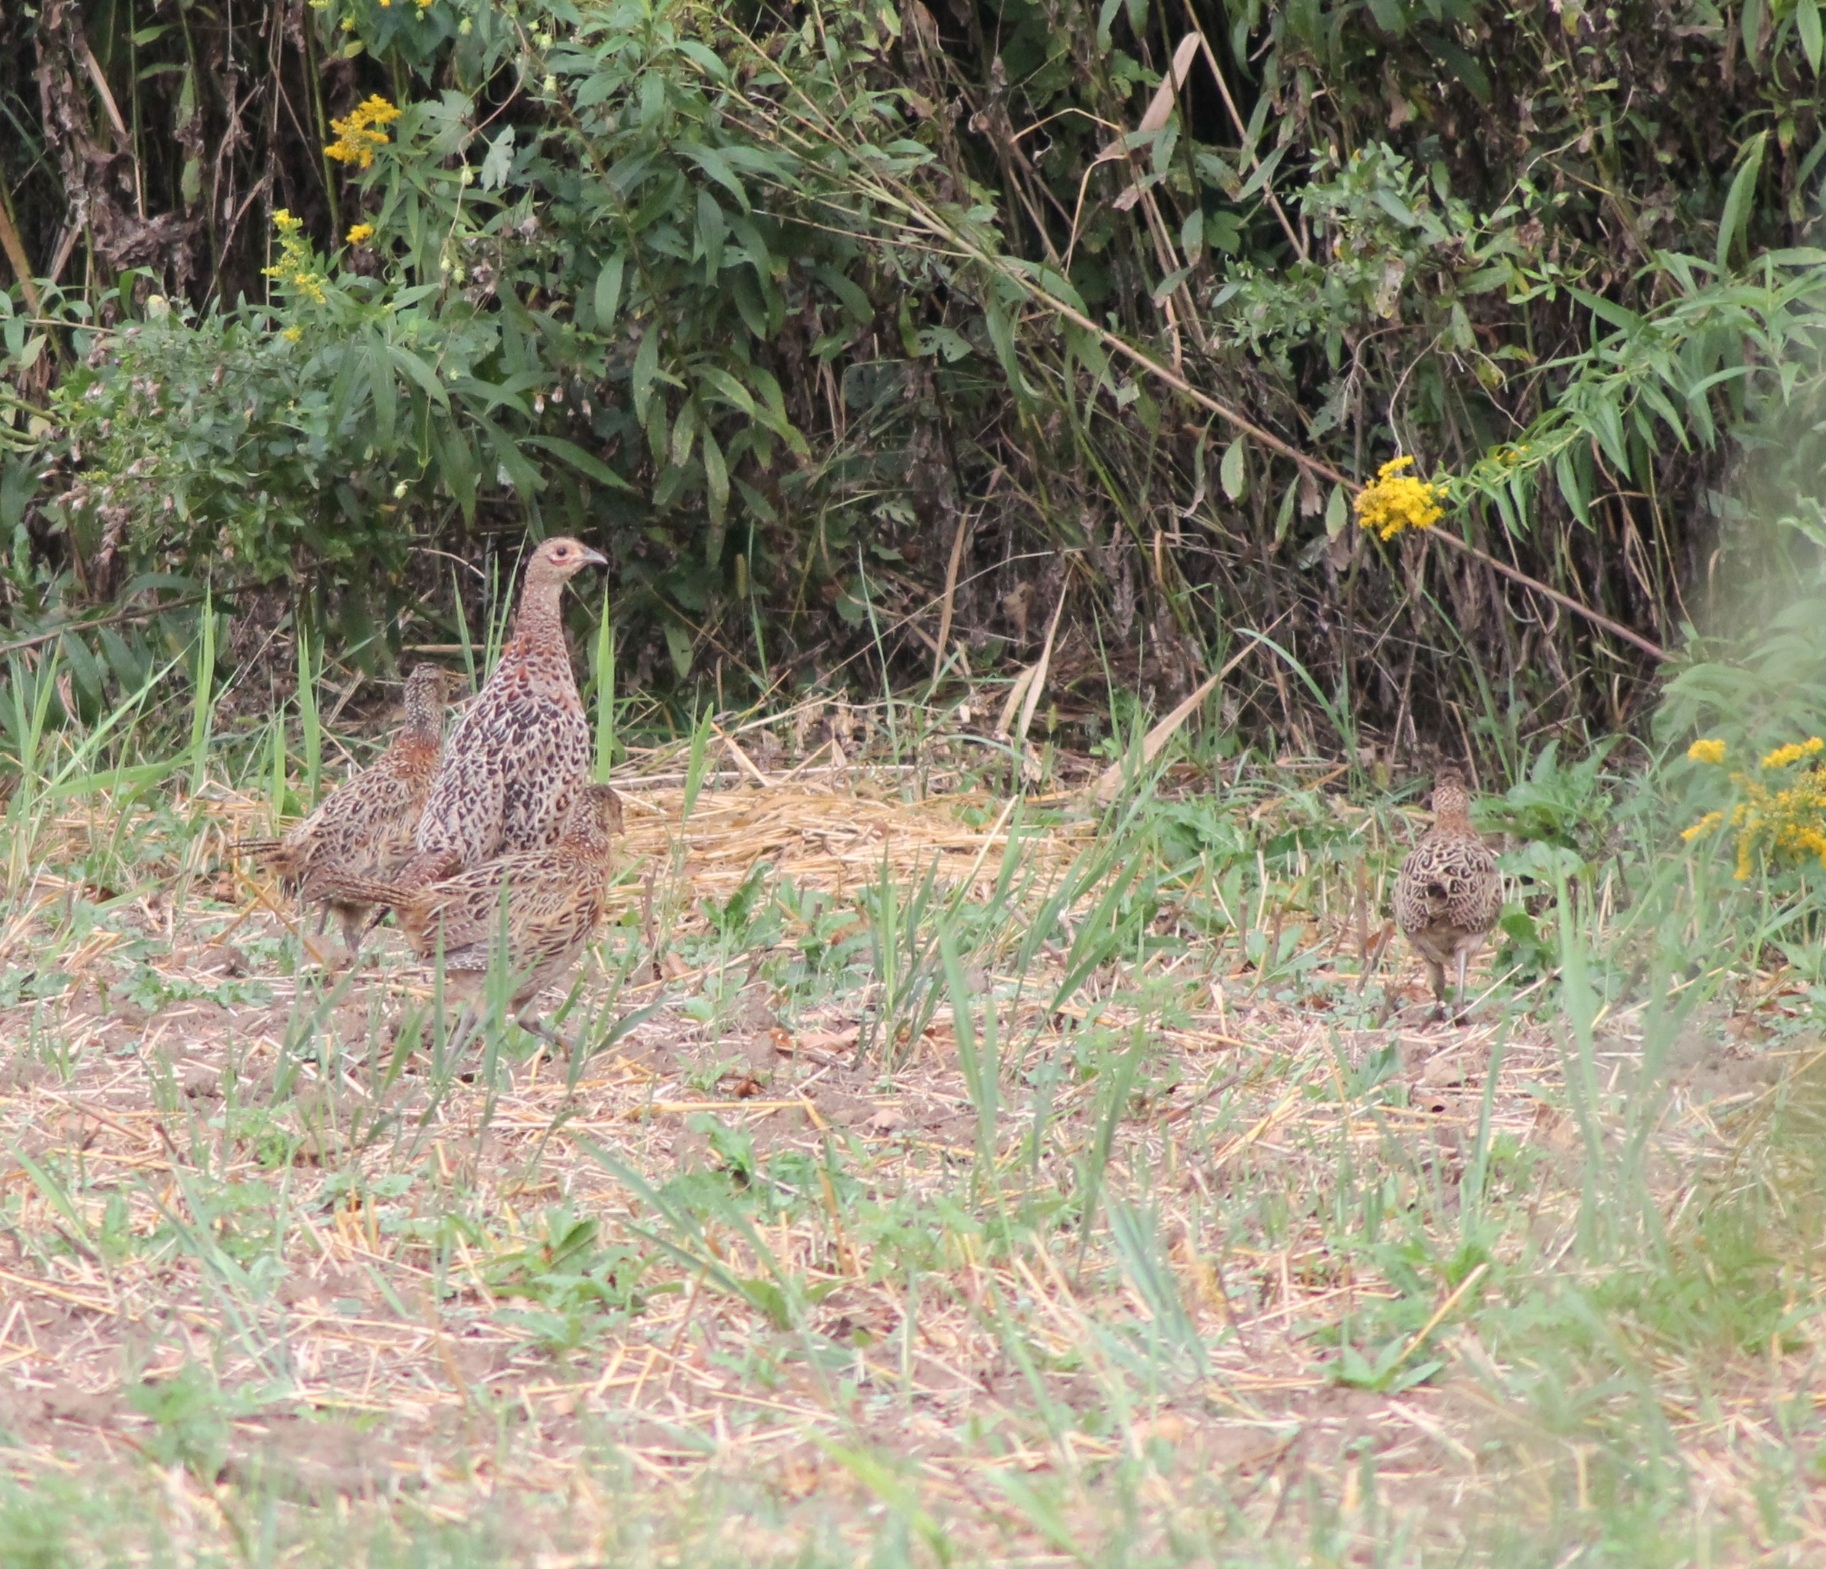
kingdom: Animalia
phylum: Chordata
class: Aves
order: Galliformes
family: Phasianidae
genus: Phasianus
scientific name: Phasianus colchicus
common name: Common pheasant
